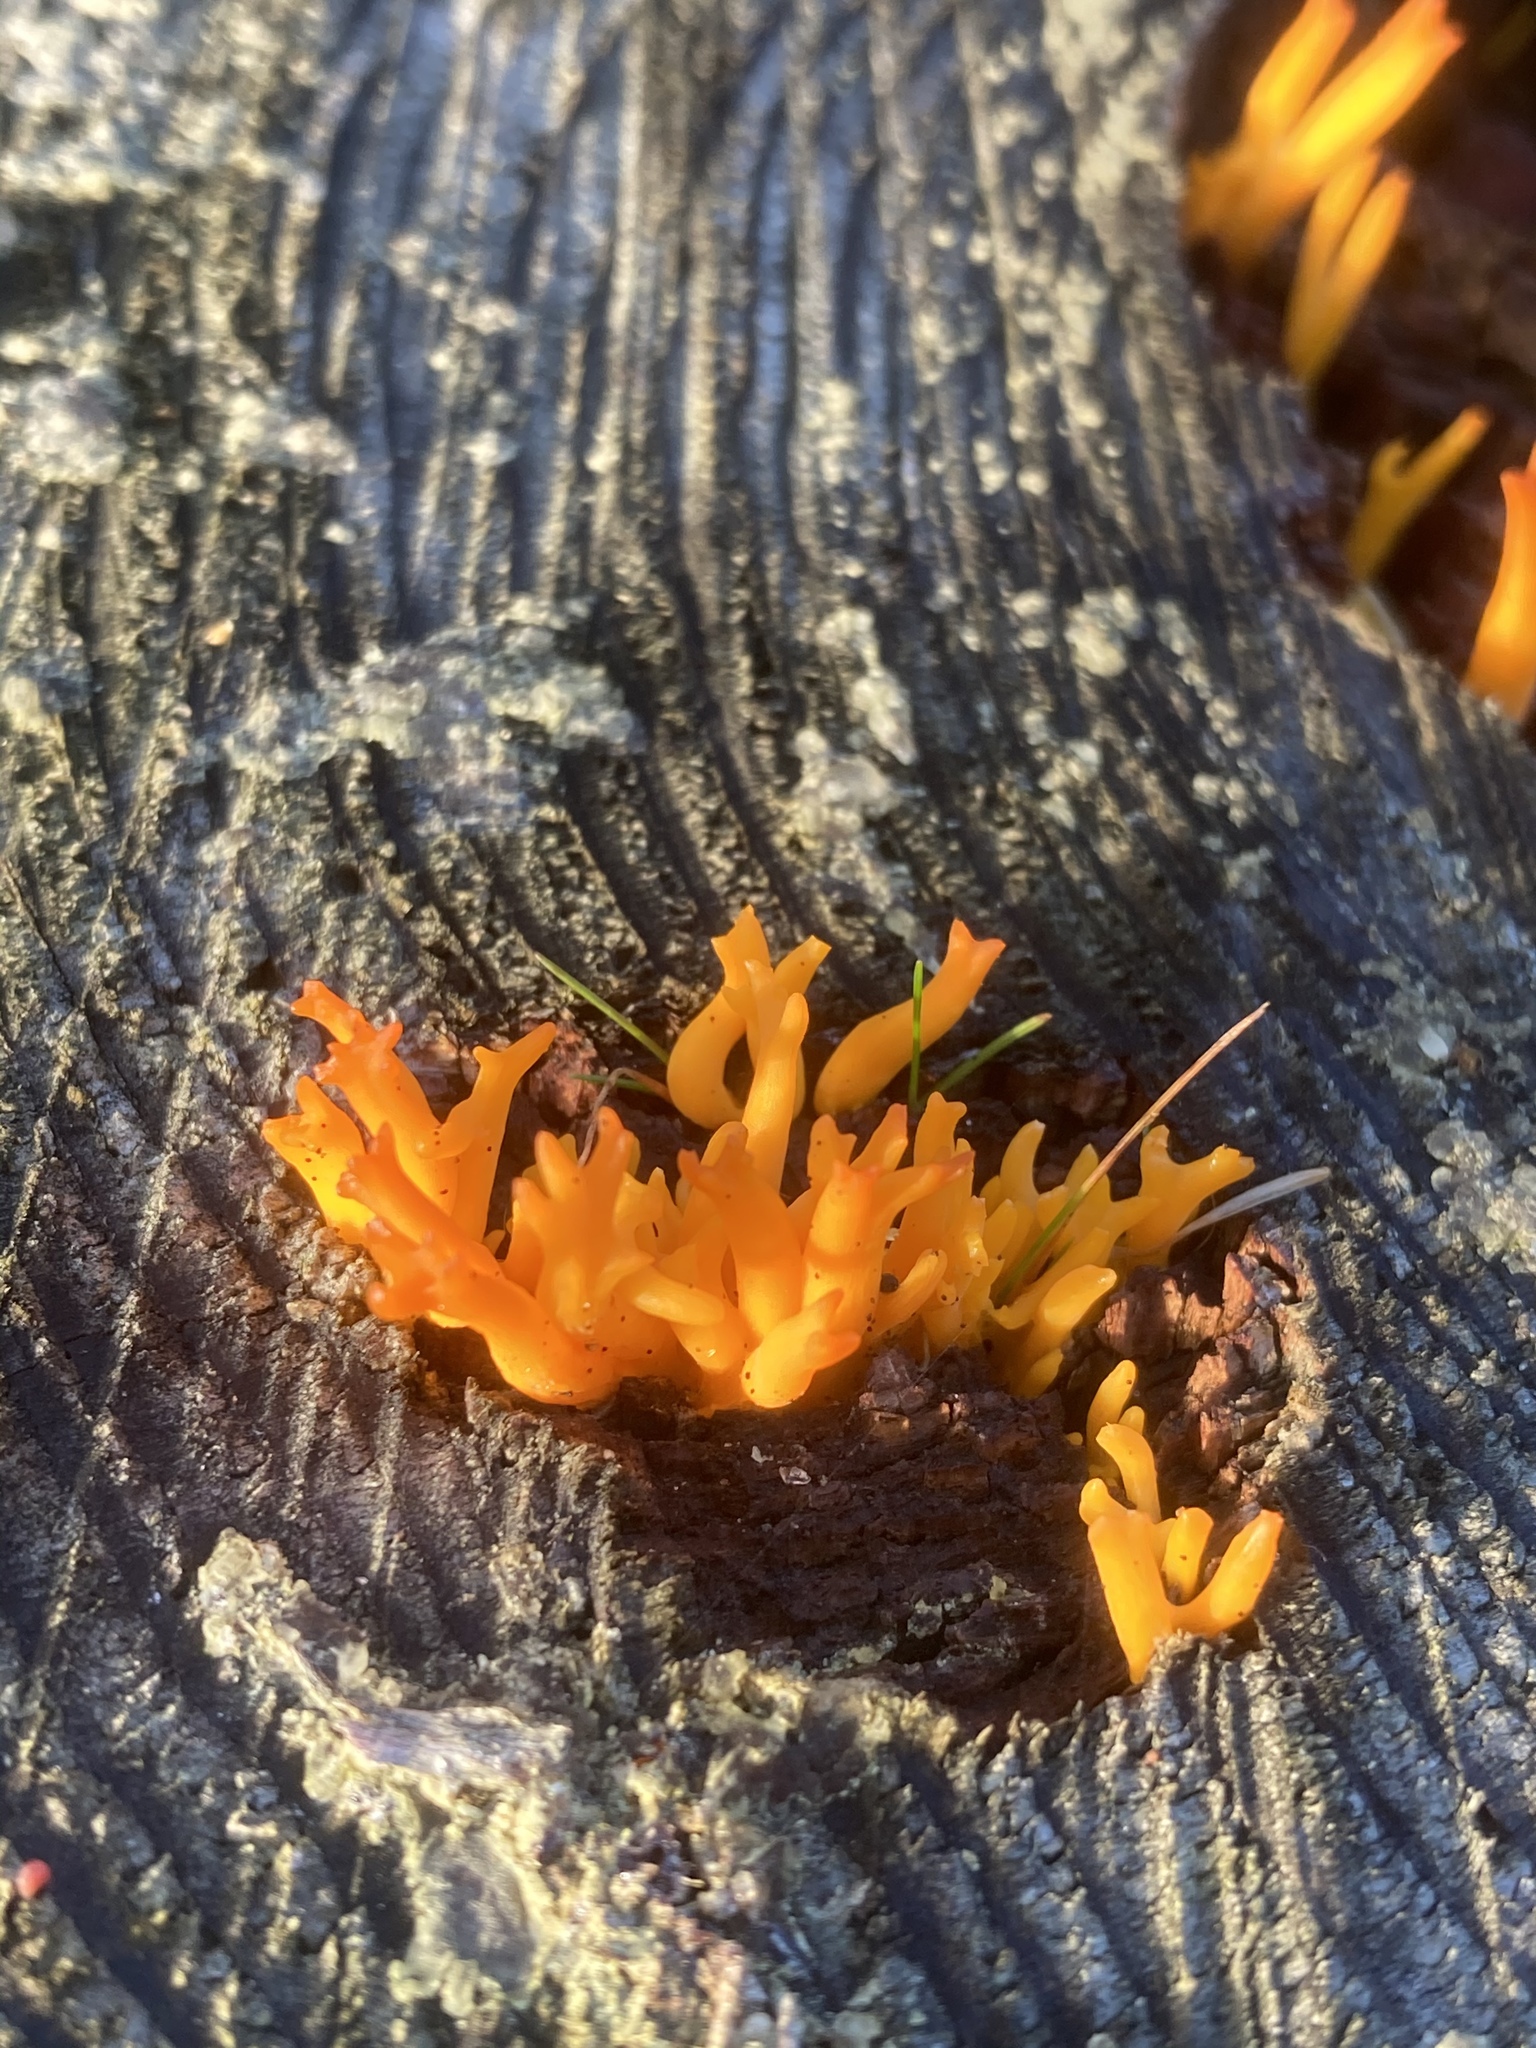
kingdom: Fungi
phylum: Basidiomycota
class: Dacrymycetes
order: Dacrymycetales
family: Dacrymycetaceae
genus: Calocera
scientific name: Calocera viscosa
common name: Yellow stagshorn
